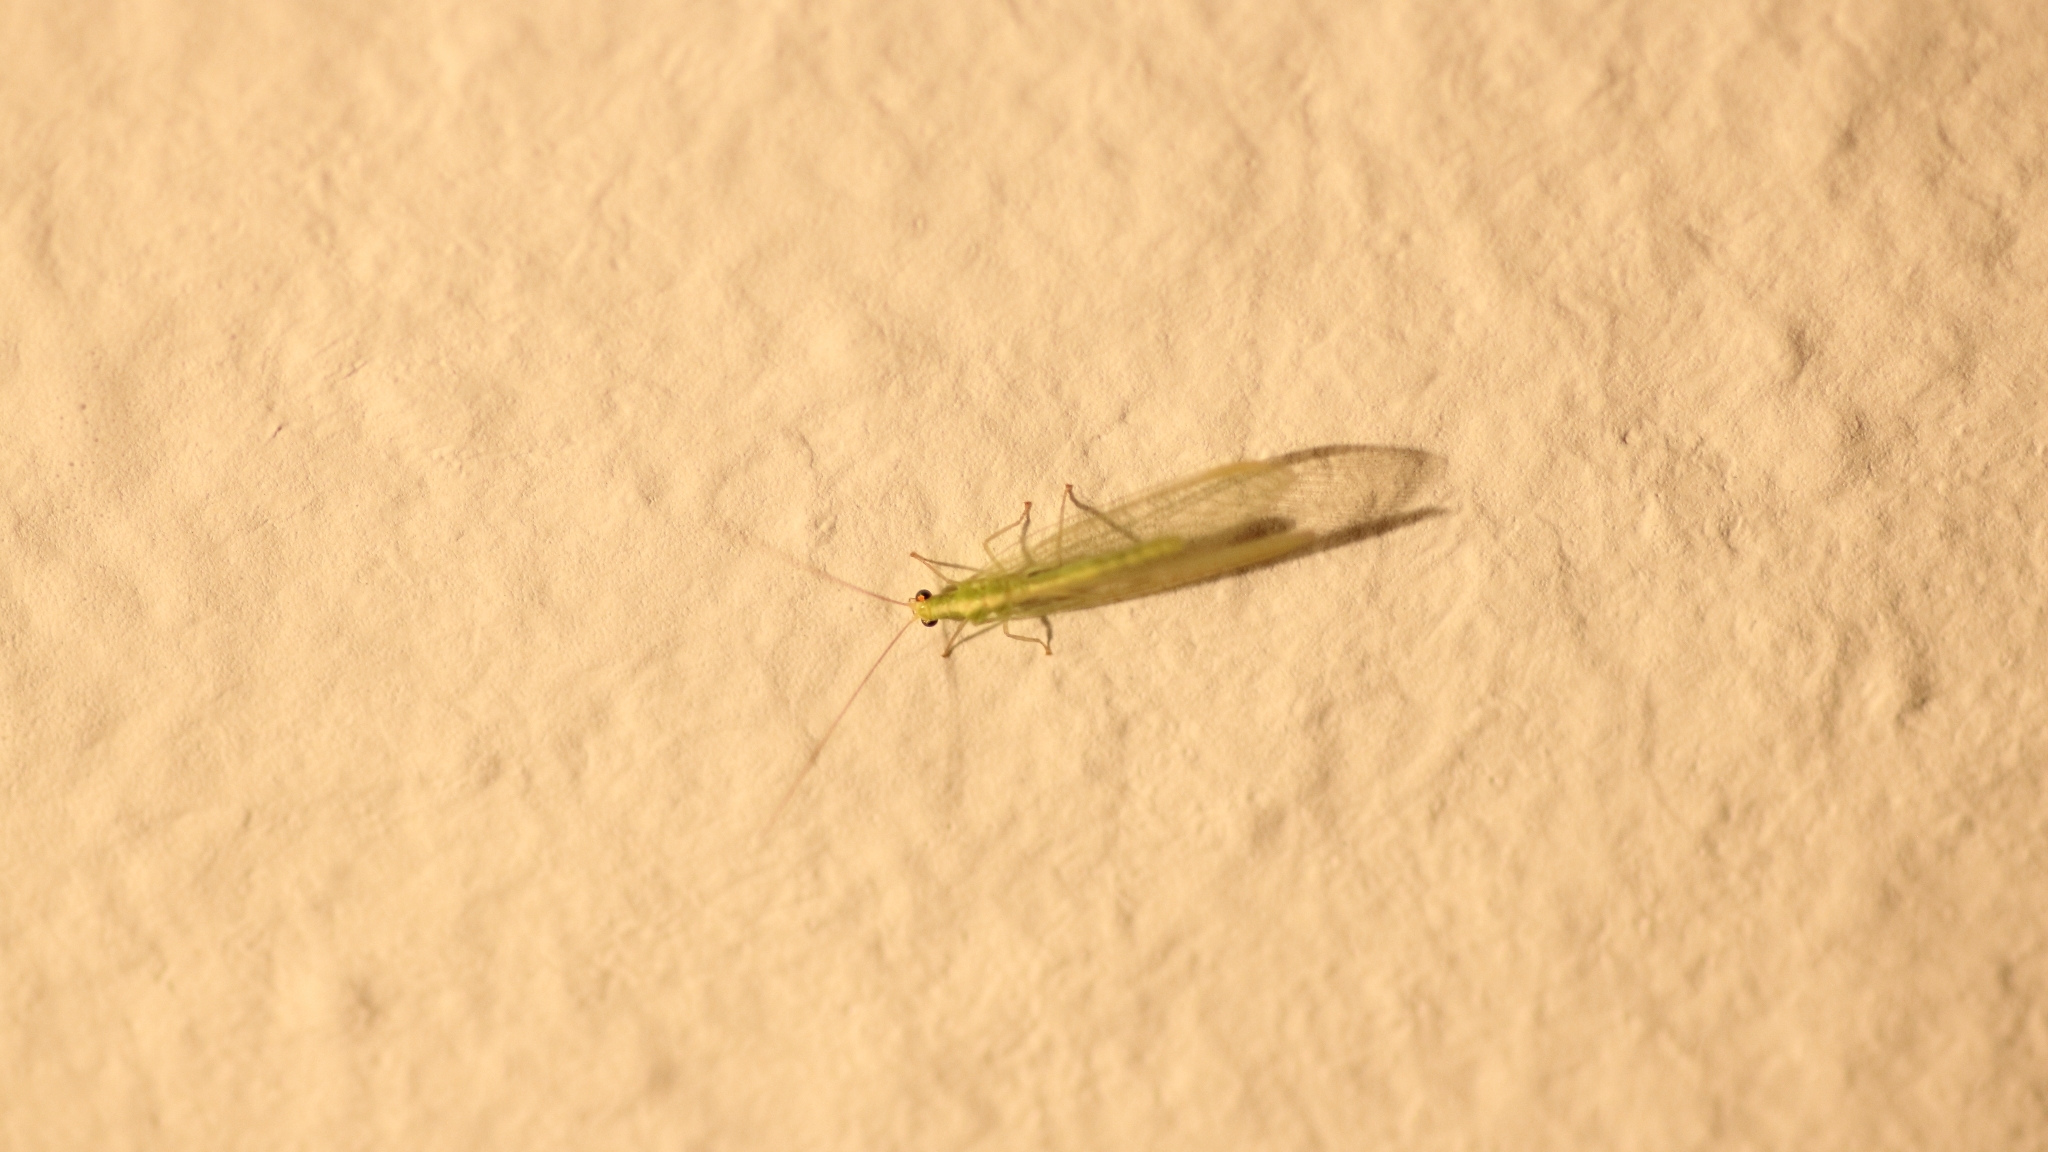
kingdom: Animalia
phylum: Arthropoda
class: Insecta
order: Neuroptera
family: Chrysopidae
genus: Chrysoperla
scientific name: Chrysoperla
